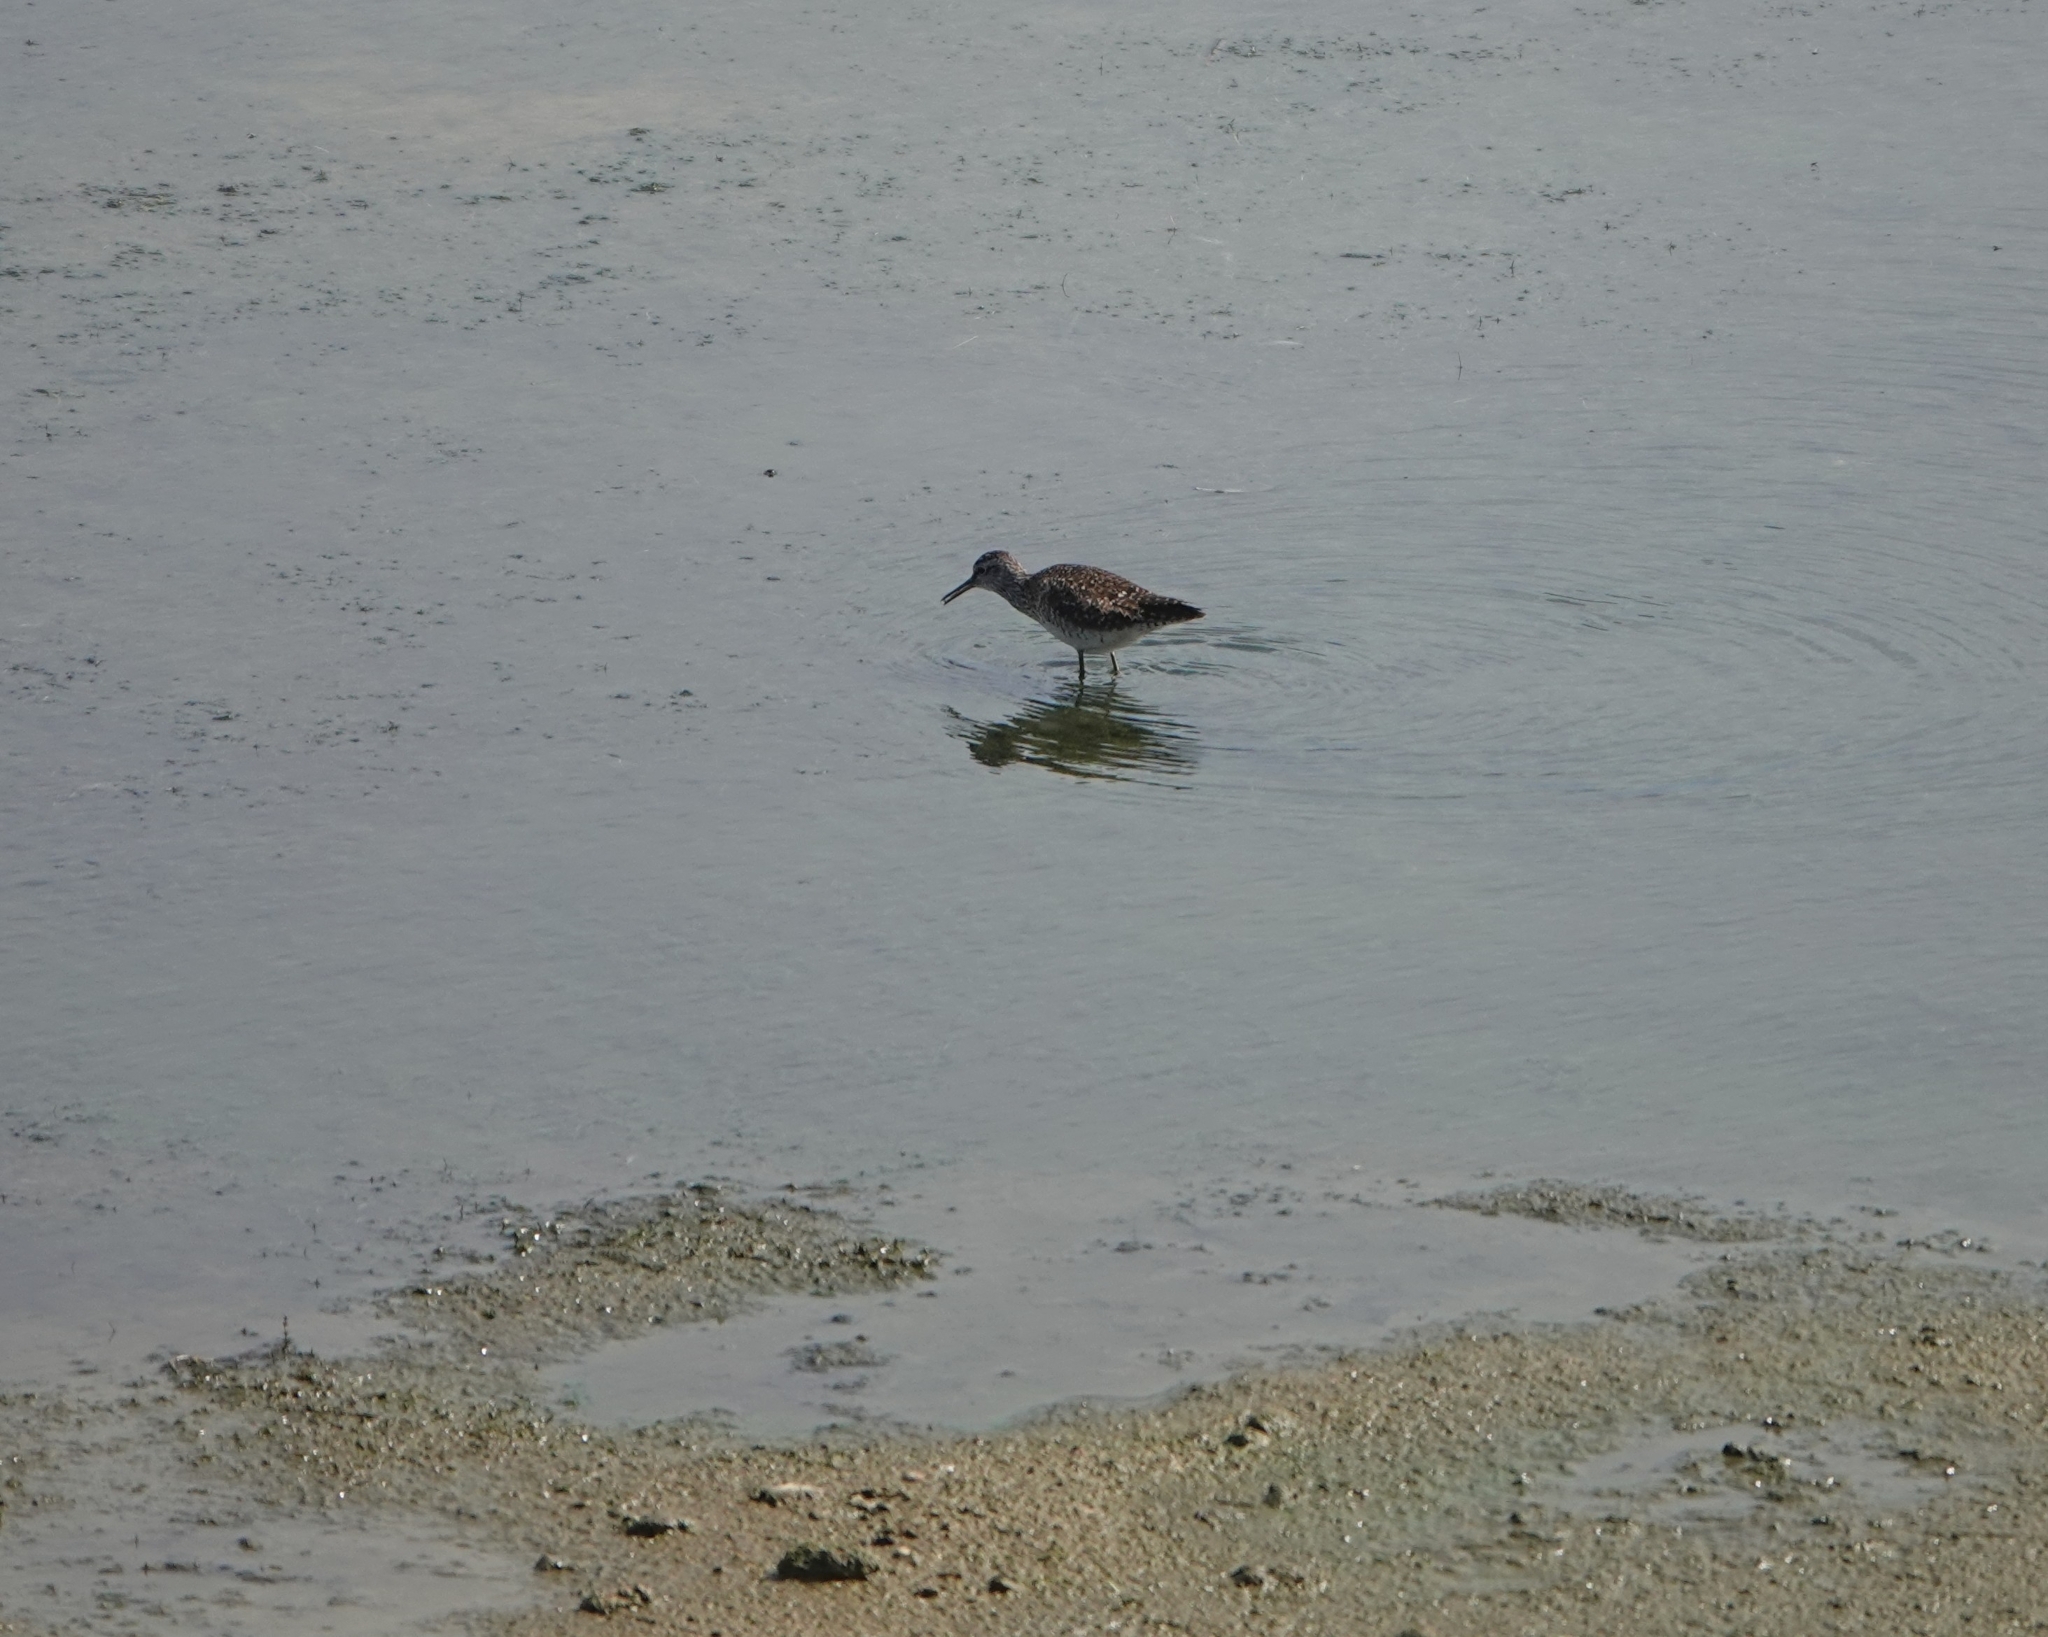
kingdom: Animalia
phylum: Chordata
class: Aves
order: Charadriiformes
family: Scolopacidae
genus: Tringa
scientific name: Tringa glareola
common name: Wood sandpiper
